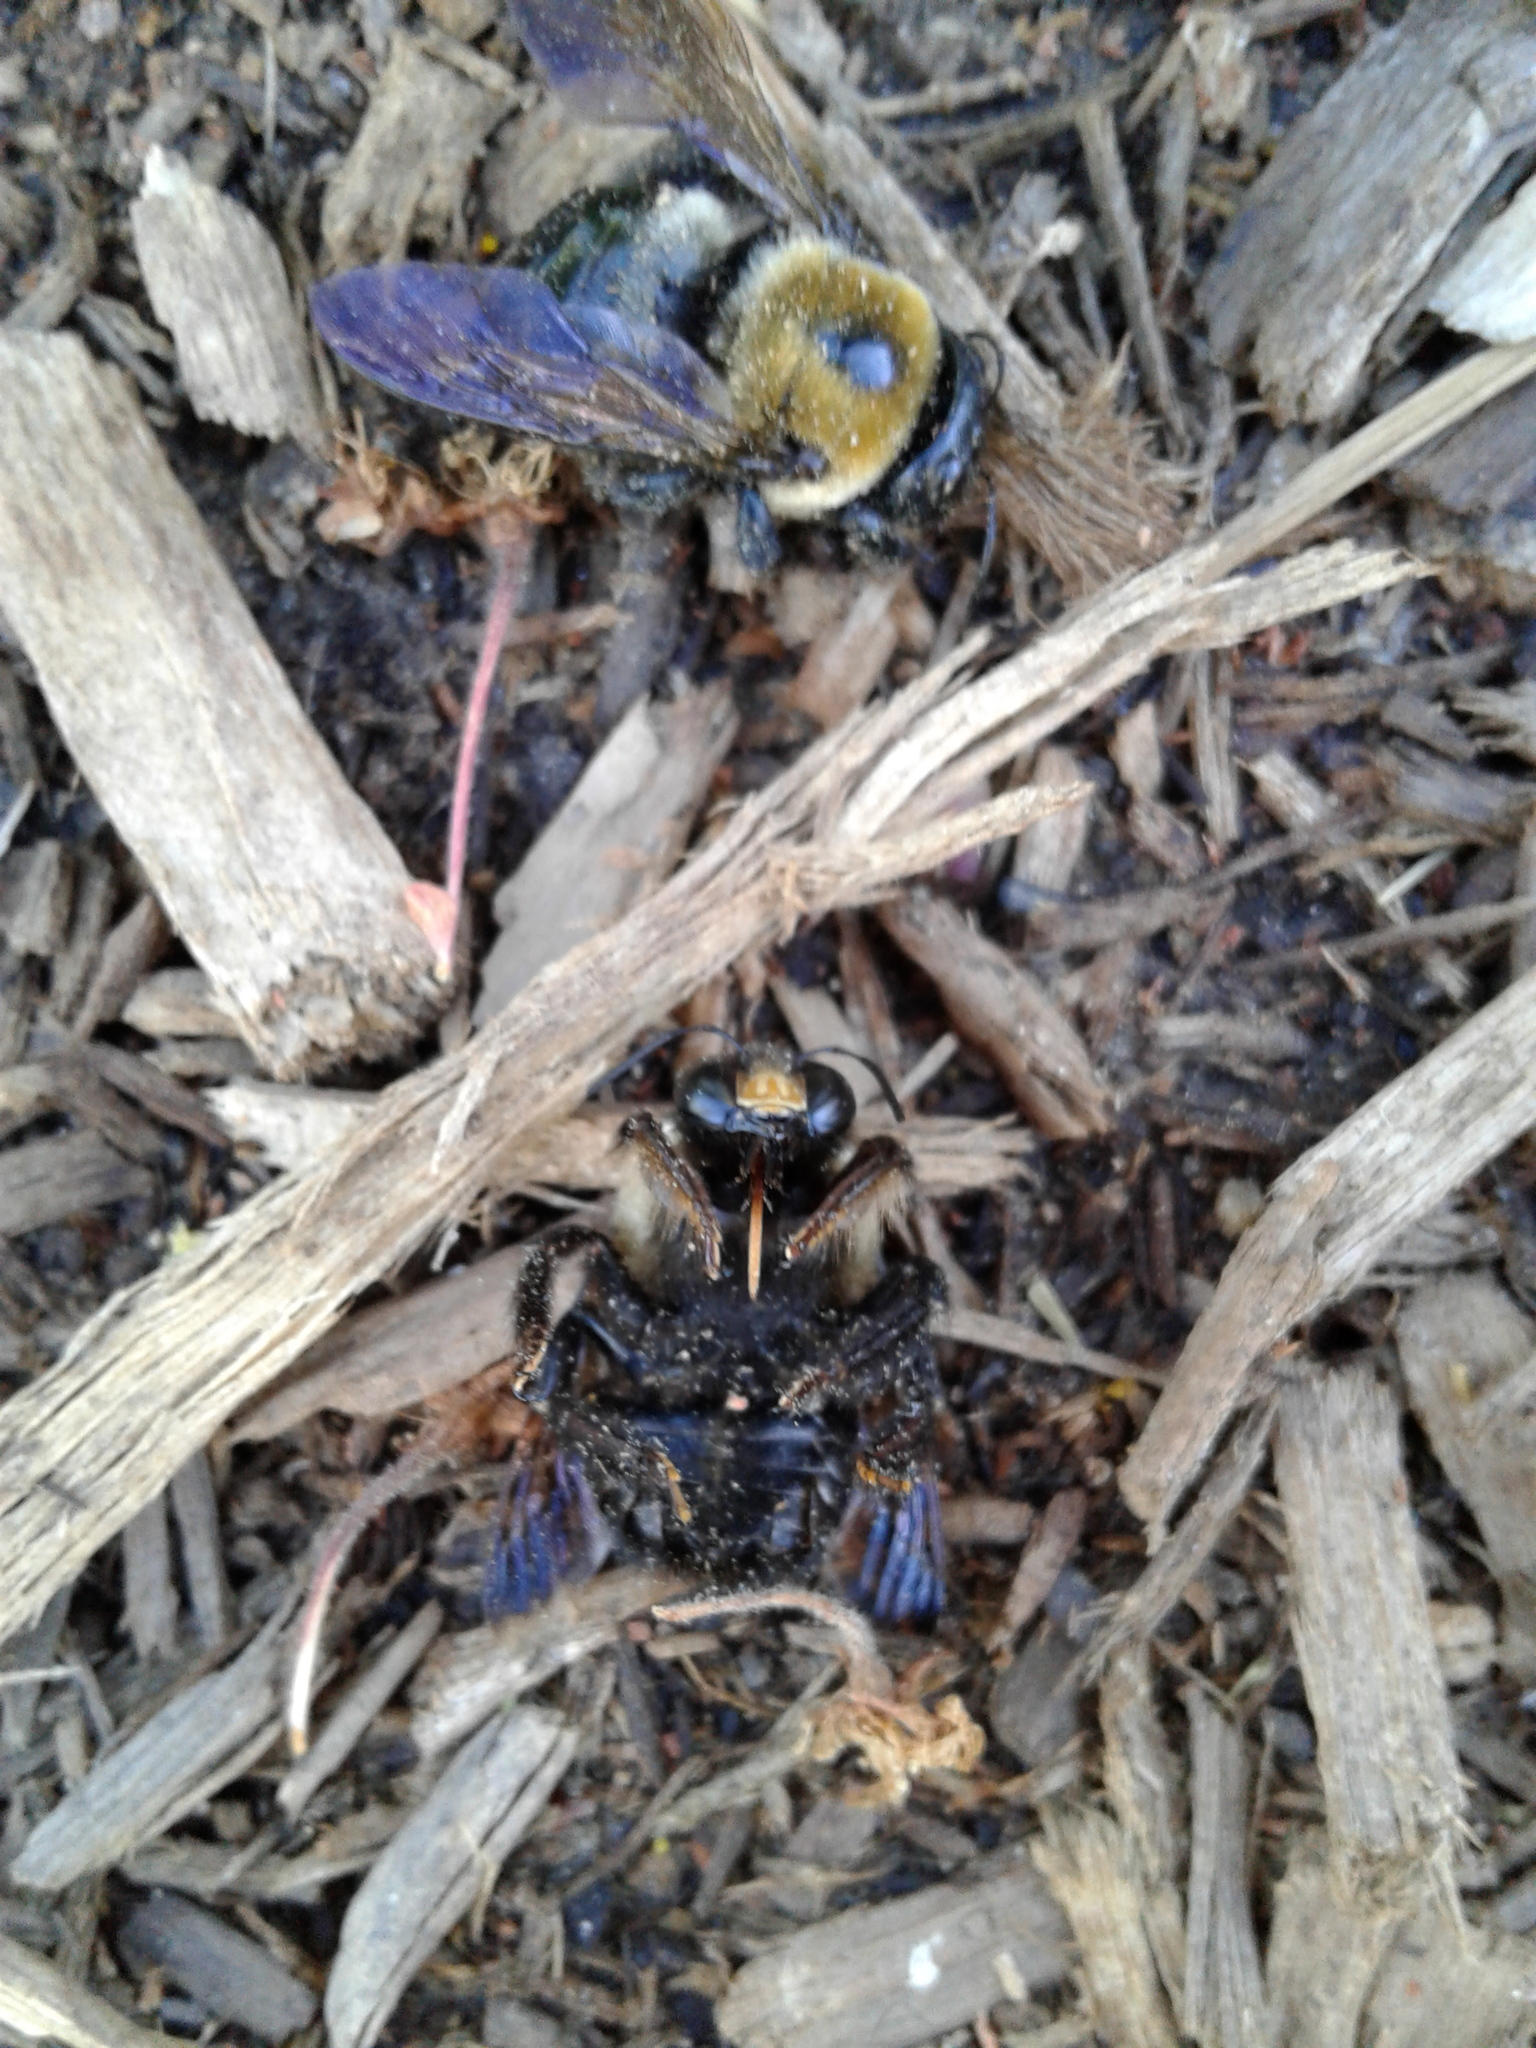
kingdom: Animalia
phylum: Arthropoda
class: Insecta
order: Hymenoptera
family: Apidae
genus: Xylocopa
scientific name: Xylocopa virginica
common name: Carpenter bee
